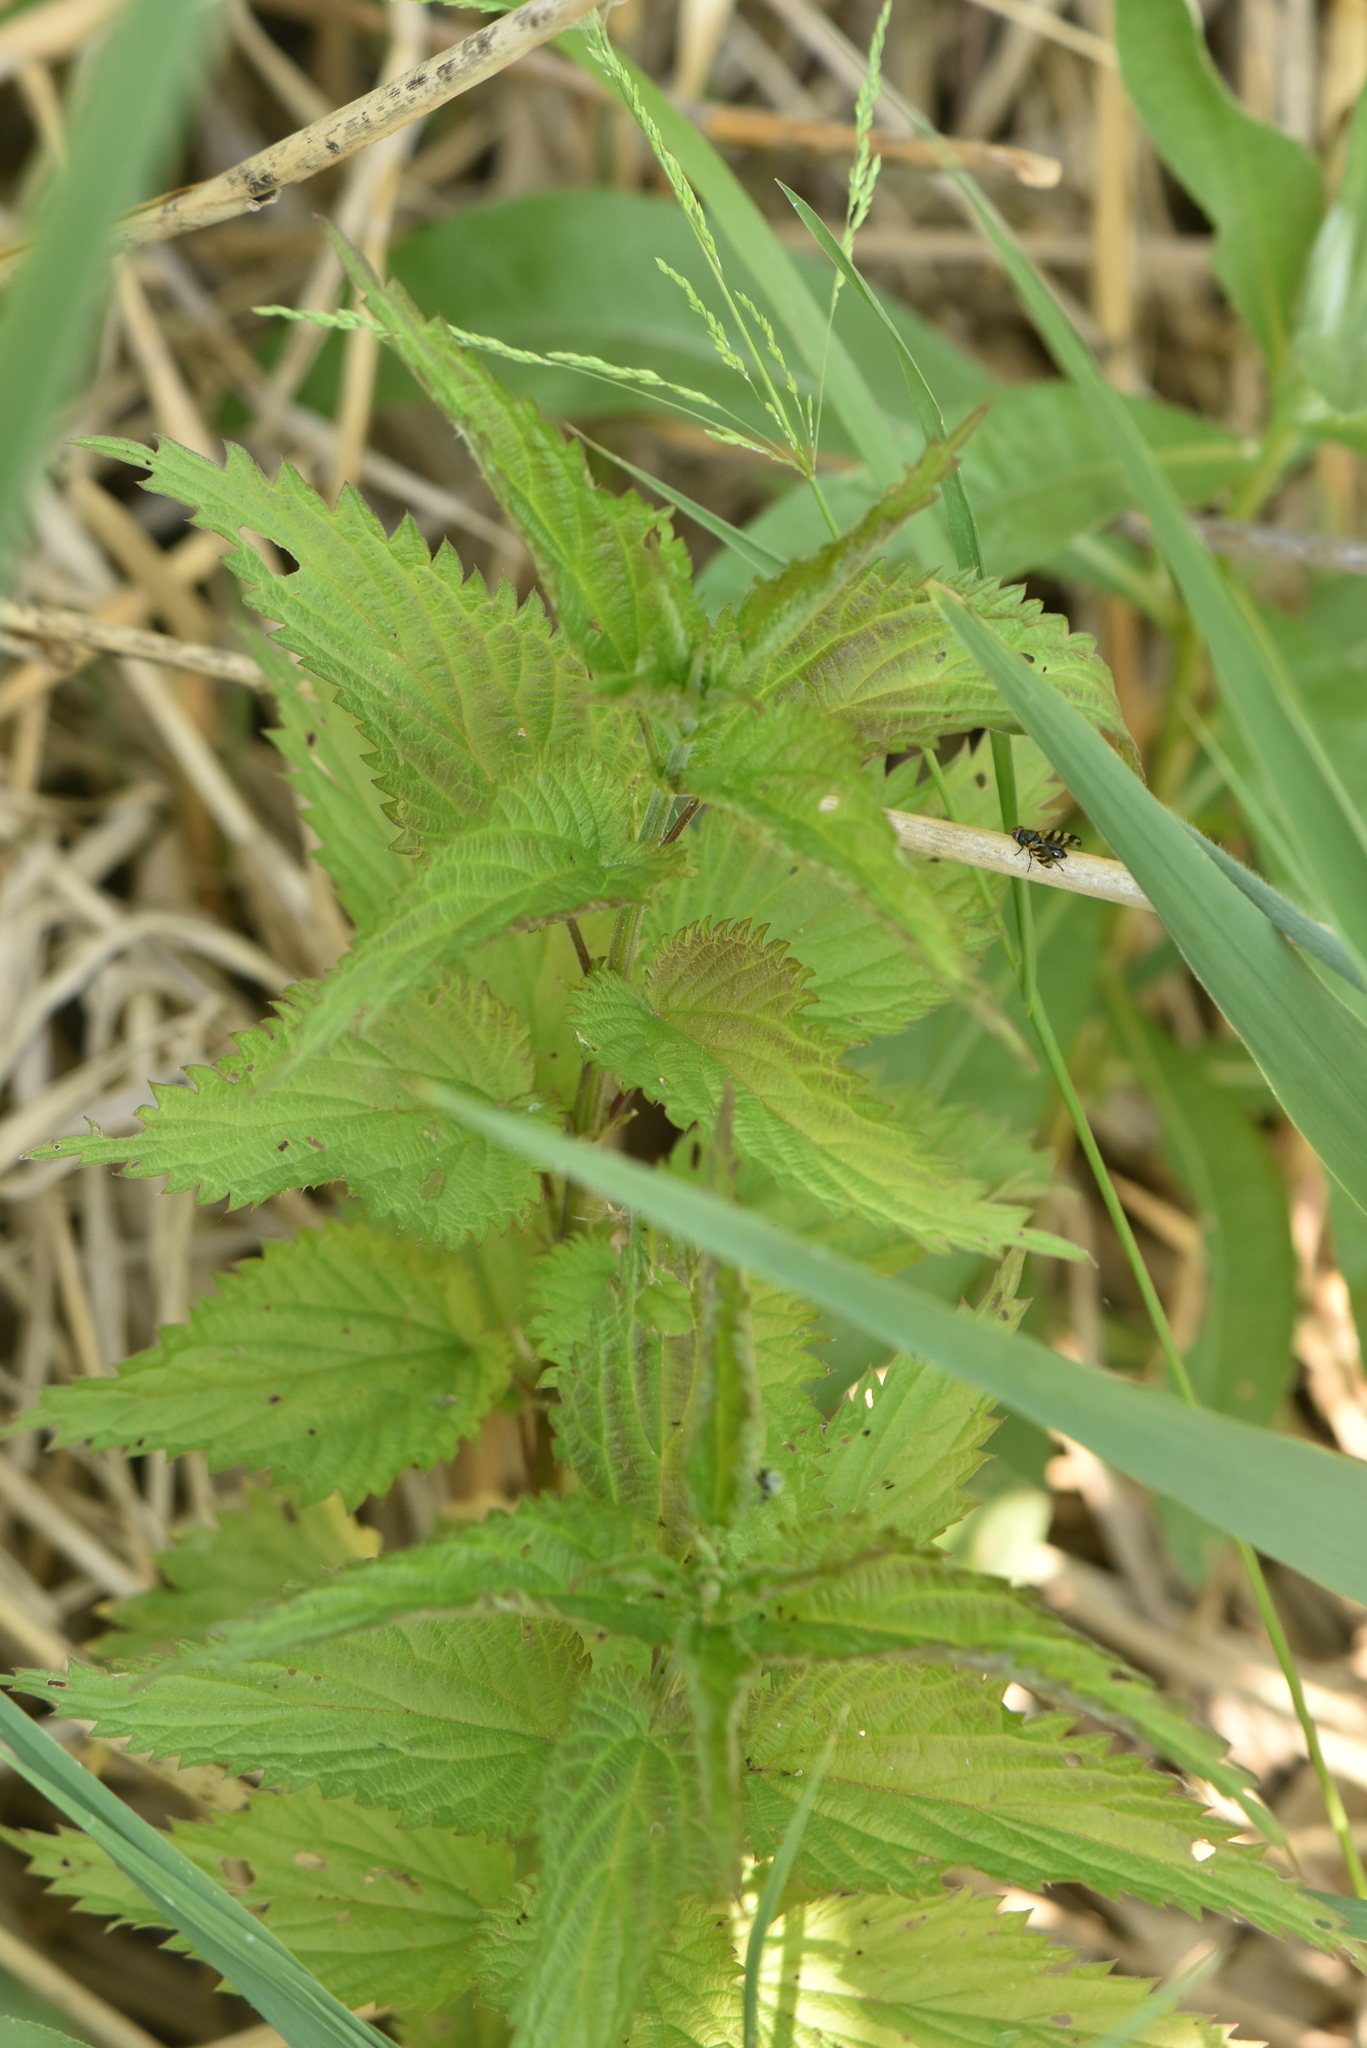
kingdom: Plantae
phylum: Tracheophyta
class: Magnoliopsida
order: Rosales
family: Urticaceae
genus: Urtica
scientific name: Urtica dioica
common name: Common nettle
